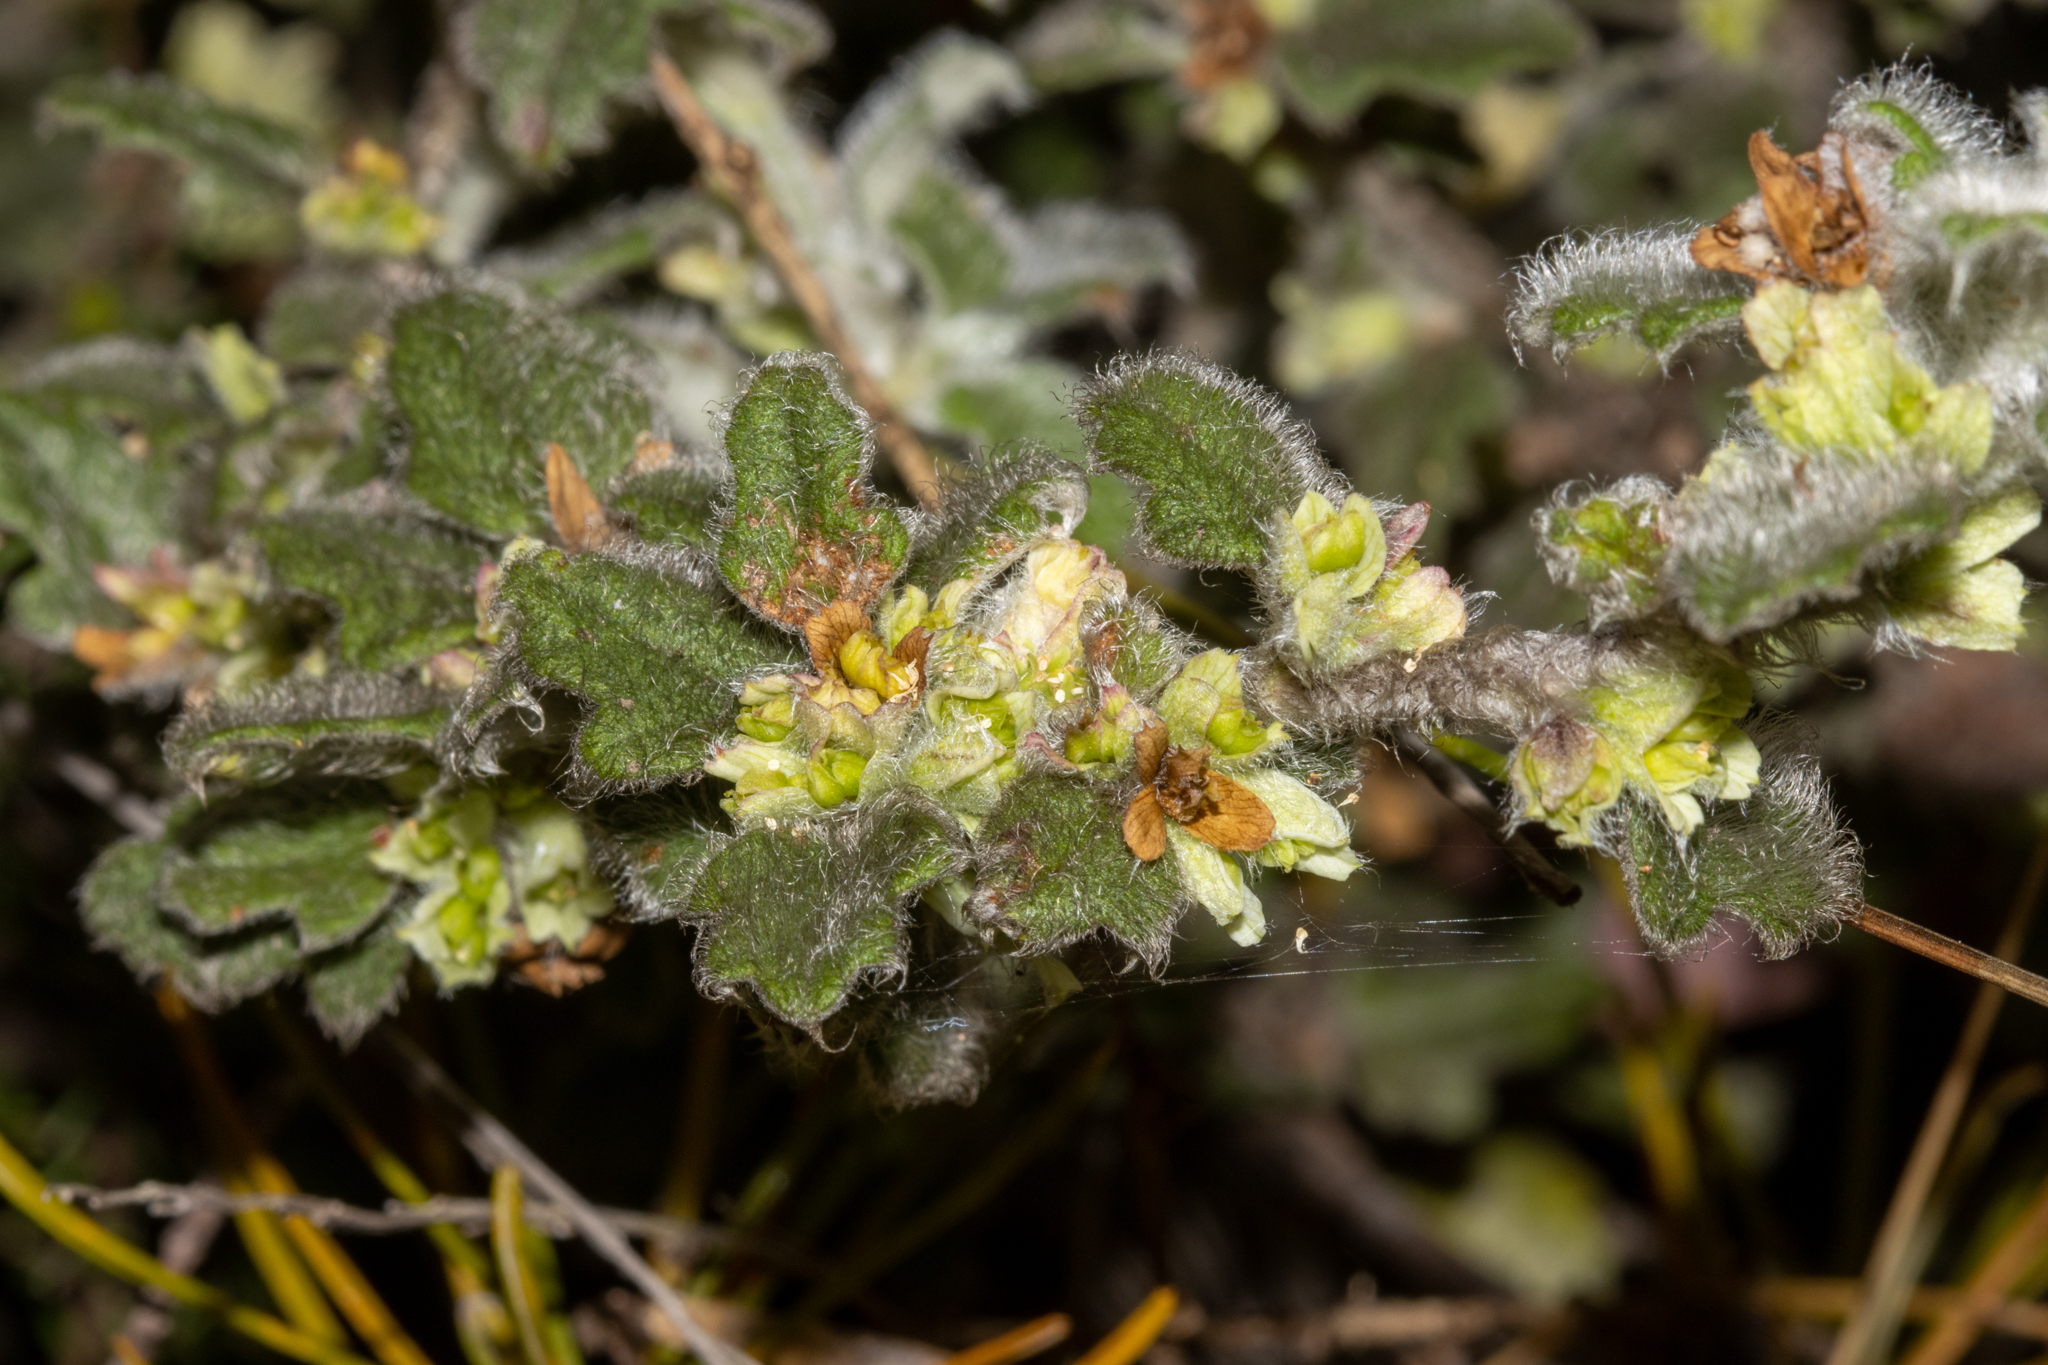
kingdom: Plantae
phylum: Tracheophyta
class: Magnoliopsida
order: Apiales
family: Apiaceae
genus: Xanthosia
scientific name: Xanthosia pilosa
